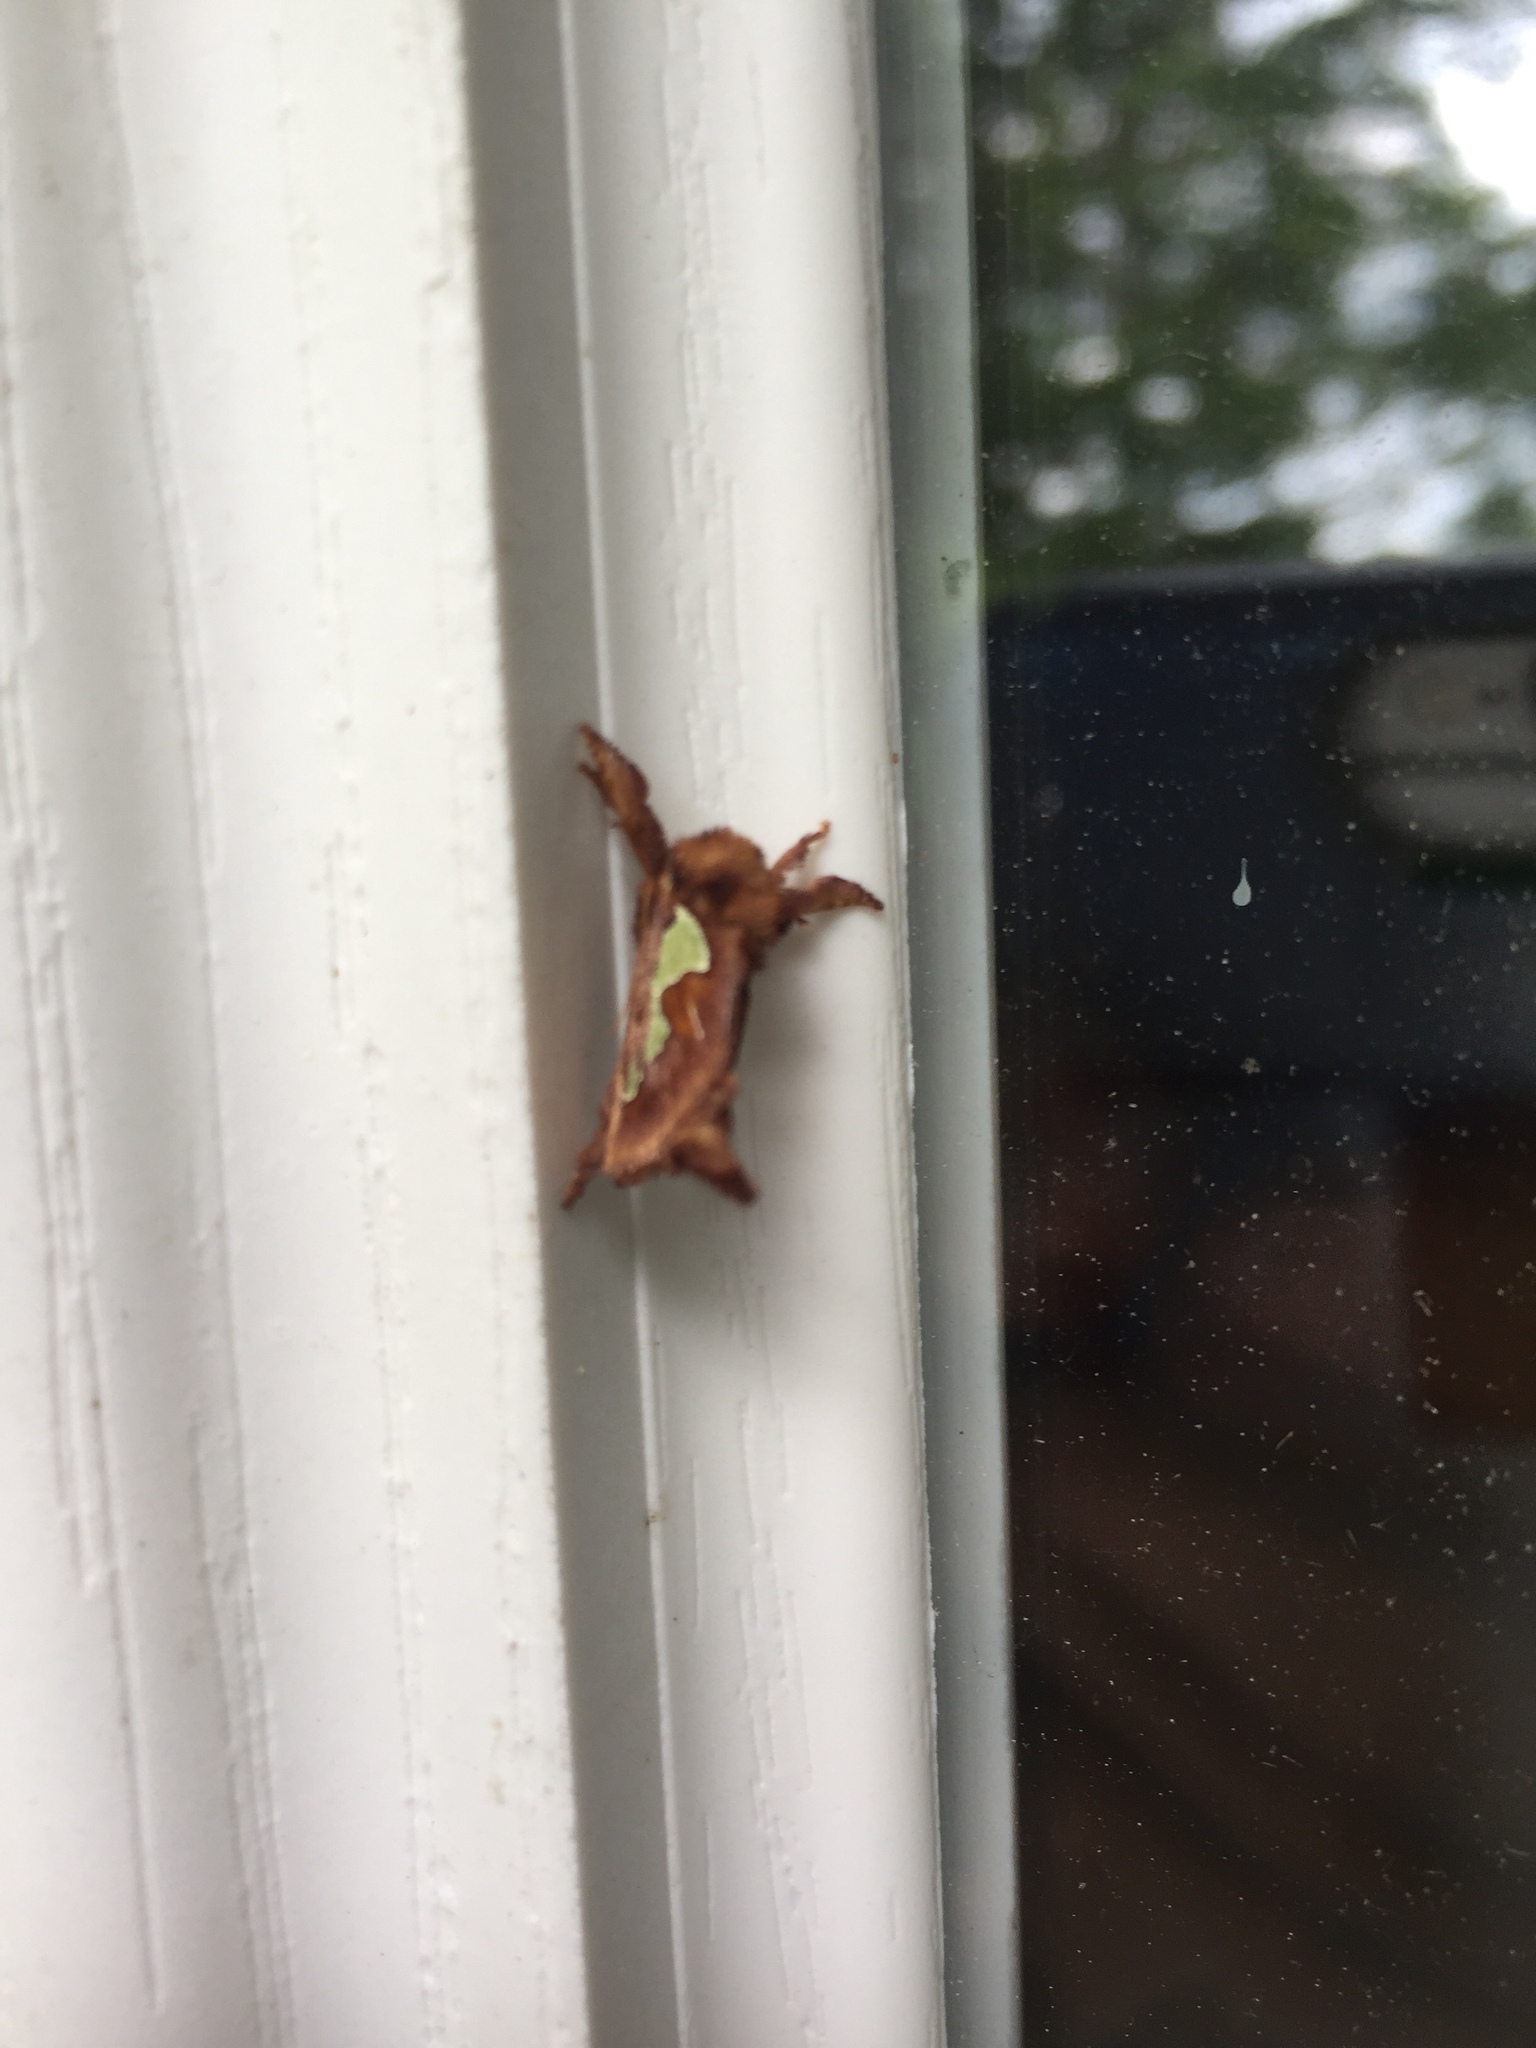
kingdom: Animalia
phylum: Arthropoda
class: Insecta
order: Lepidoptera
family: Limacodidae
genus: Euclea
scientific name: Euclea delphinii
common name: Spiny oak-slug moth
